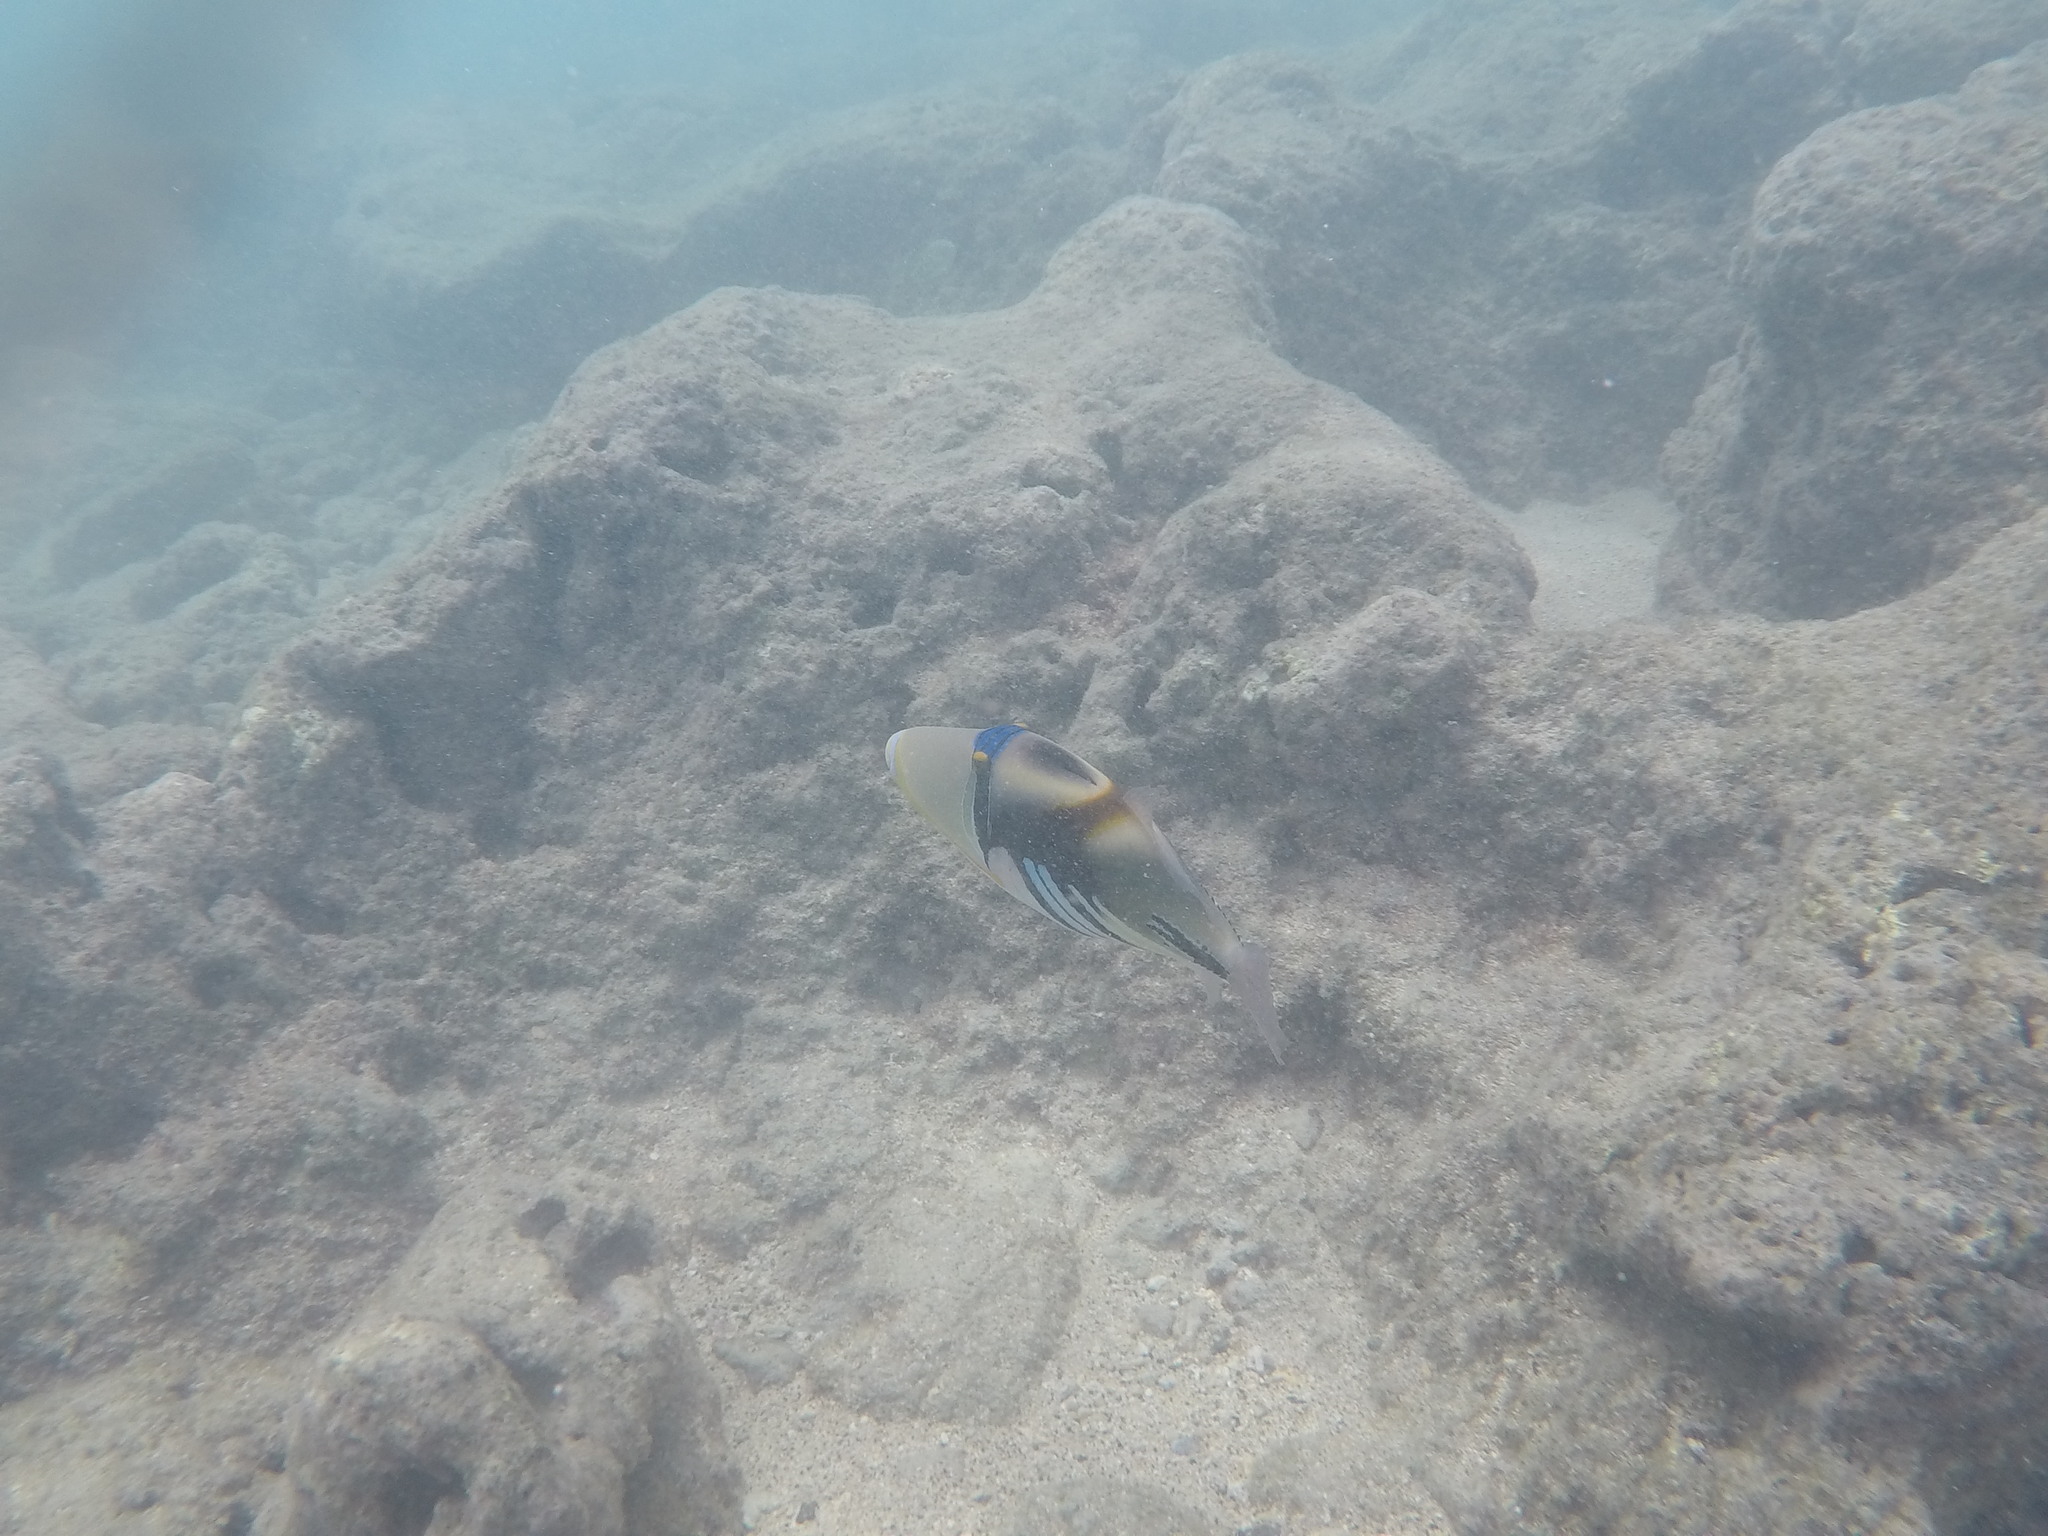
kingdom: Animalia
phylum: Chordata
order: Tetraodontiformes
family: Balistidae
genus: Rhinecanthus
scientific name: Rhinecanthus aculeatus
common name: White-banded triggerfish
